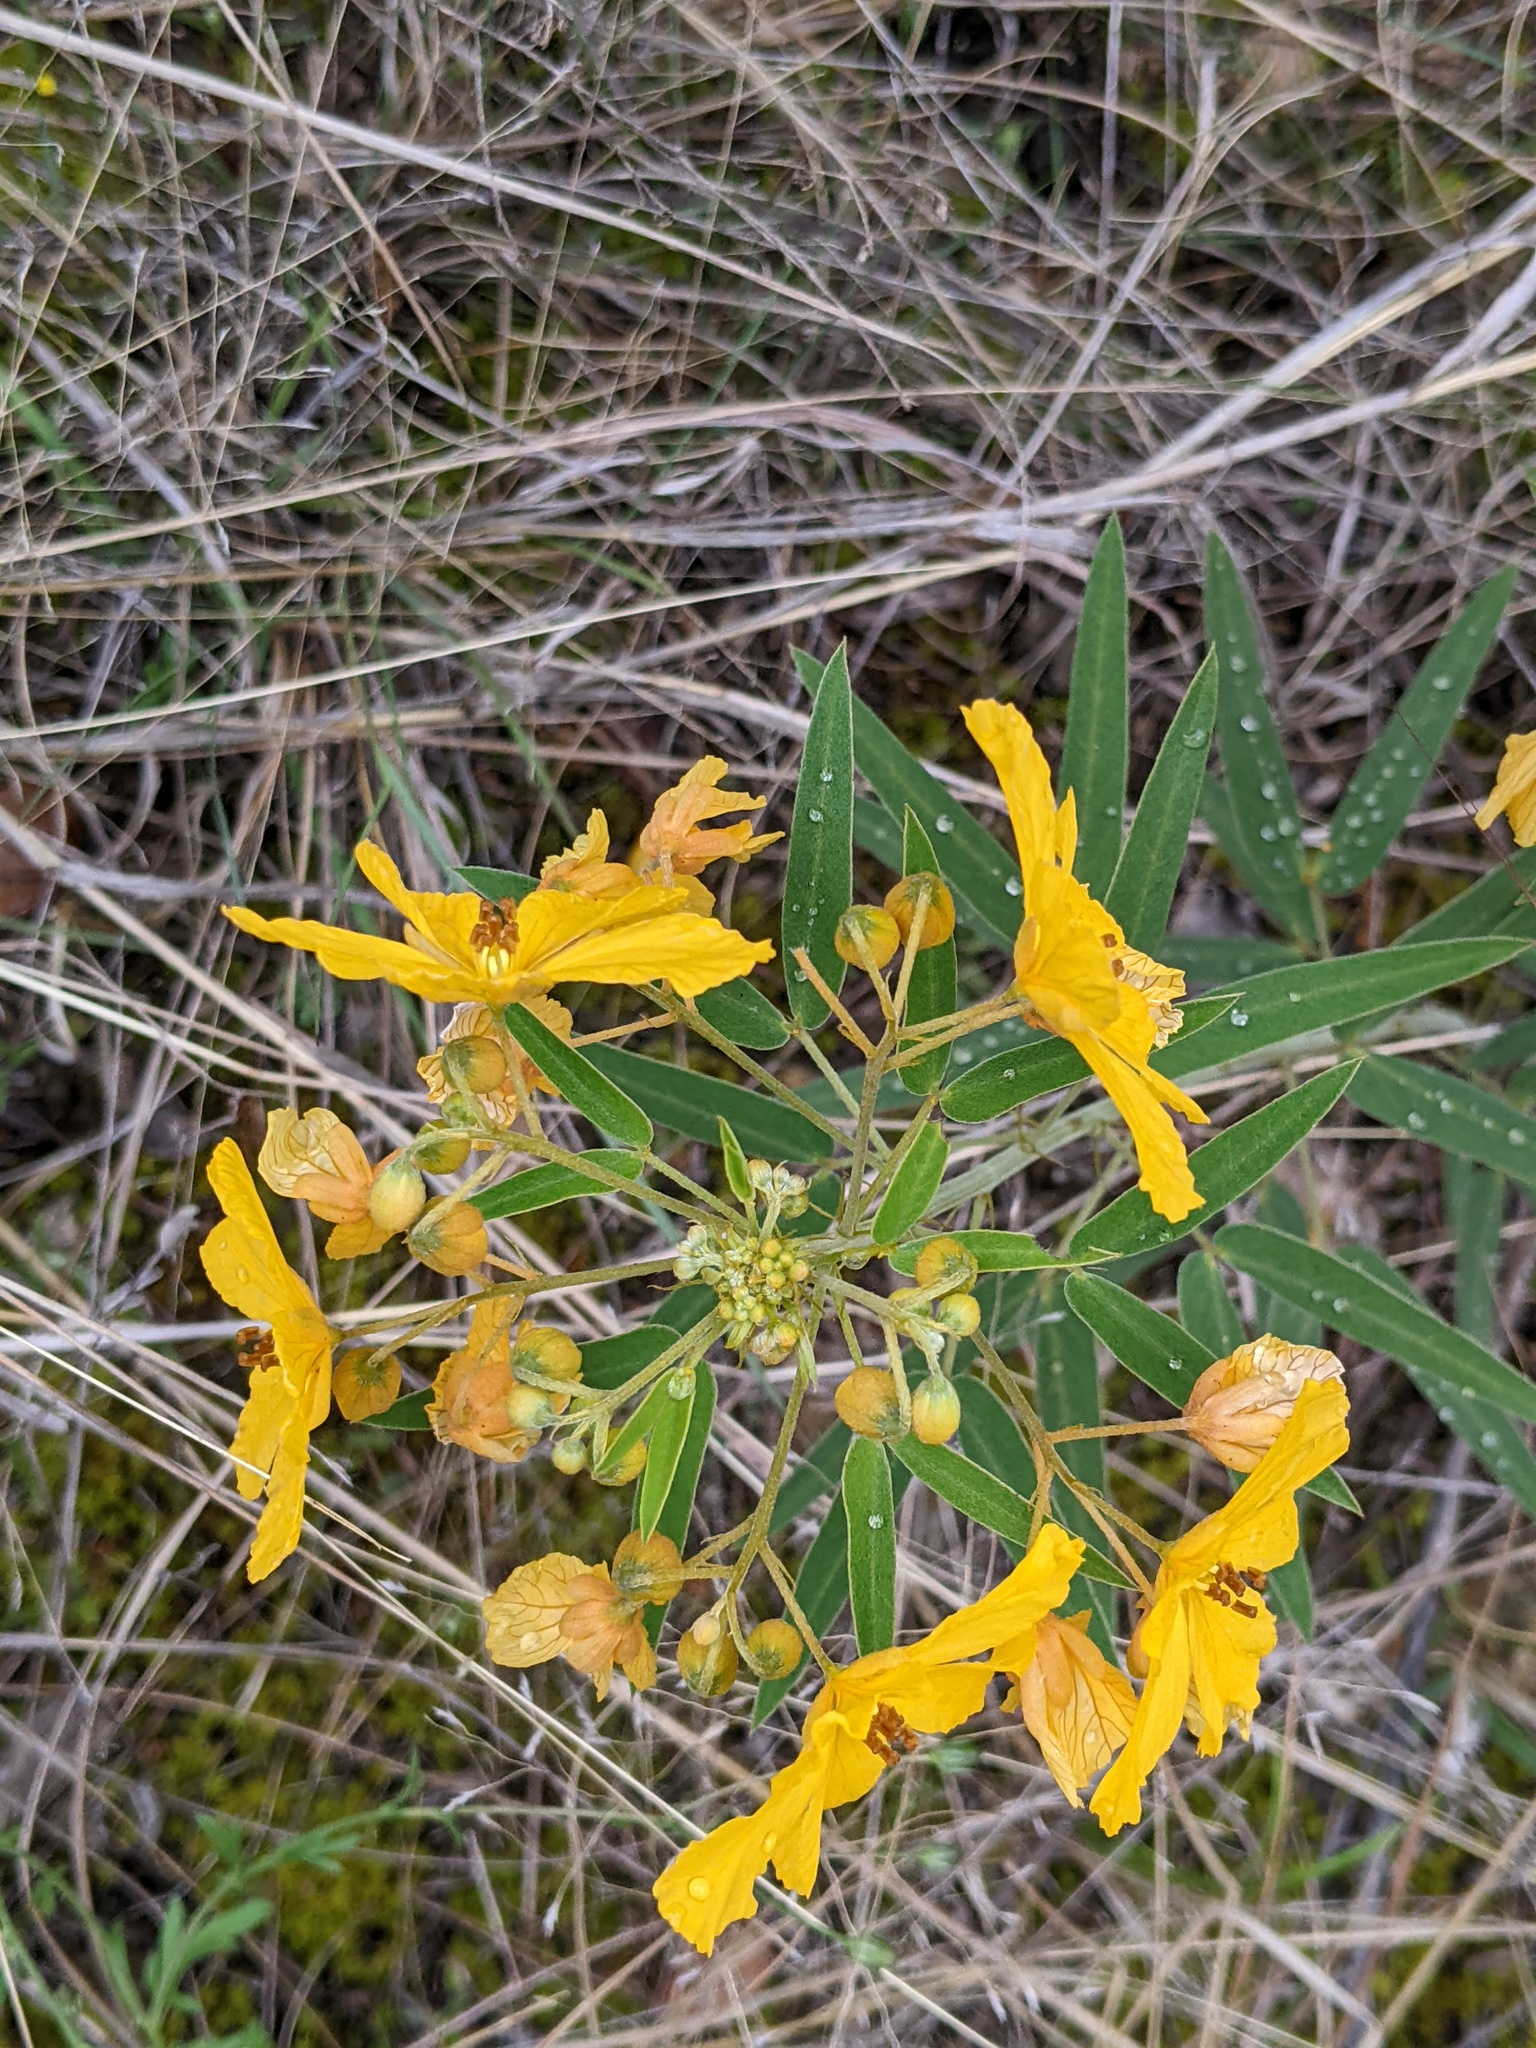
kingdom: Plantae
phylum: Tracheophyta
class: Magnoliopsida
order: Fabales
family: Fabaceae
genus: Senna
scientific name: Senna roemeriana
